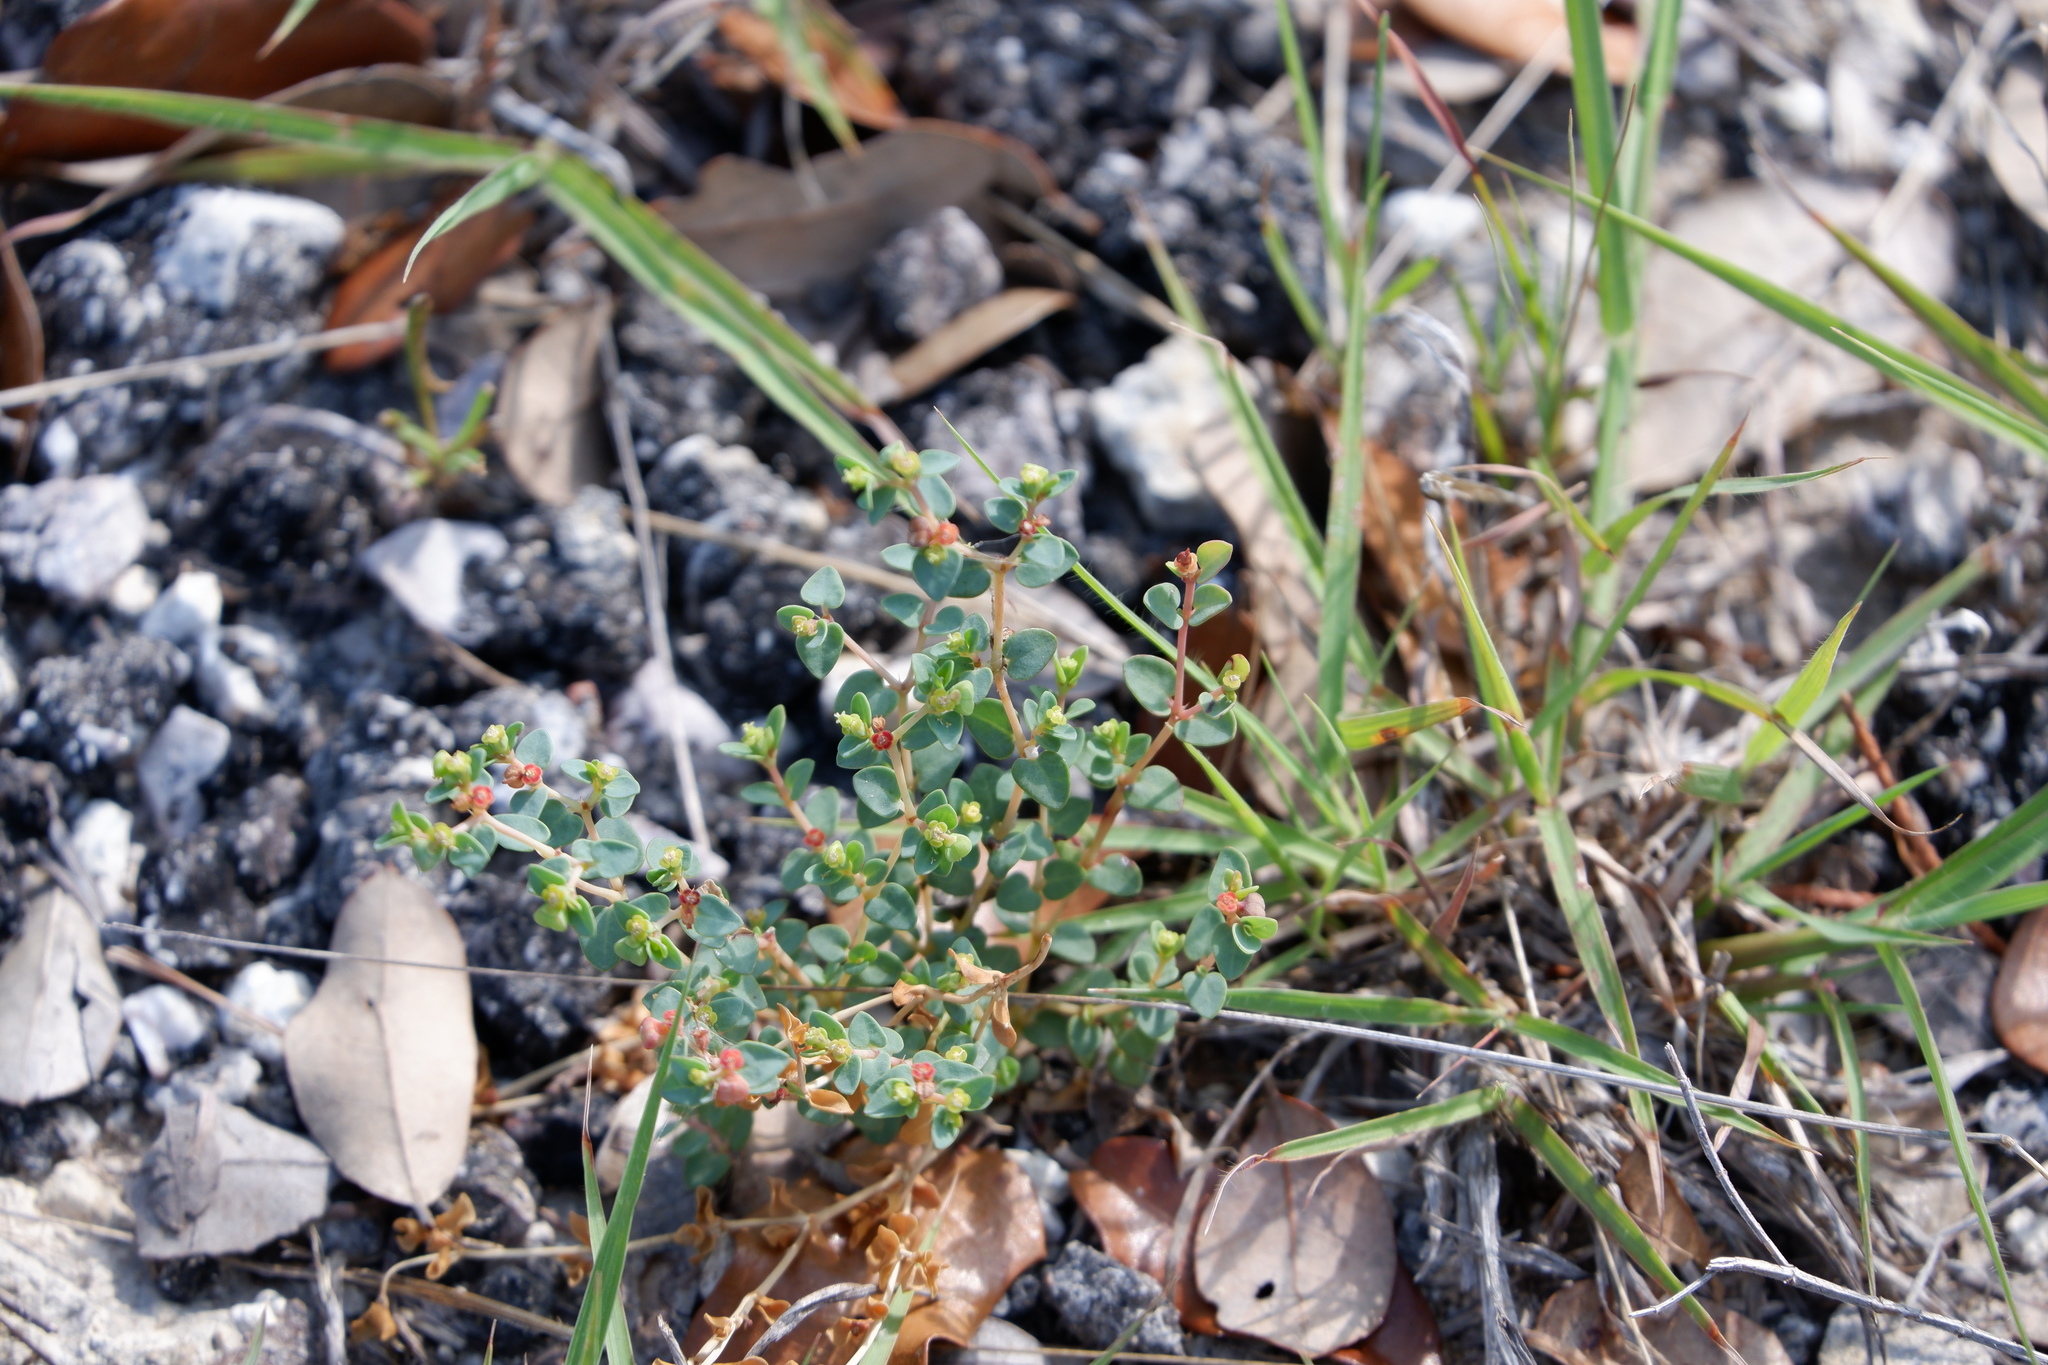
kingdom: Plantae
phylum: Tracheophyta
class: Magnoliopsida
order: Malpighiales
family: Euphorbiaceae
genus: Euphorbia
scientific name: Euphorbia fendleri
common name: Fendler's euphorbia
